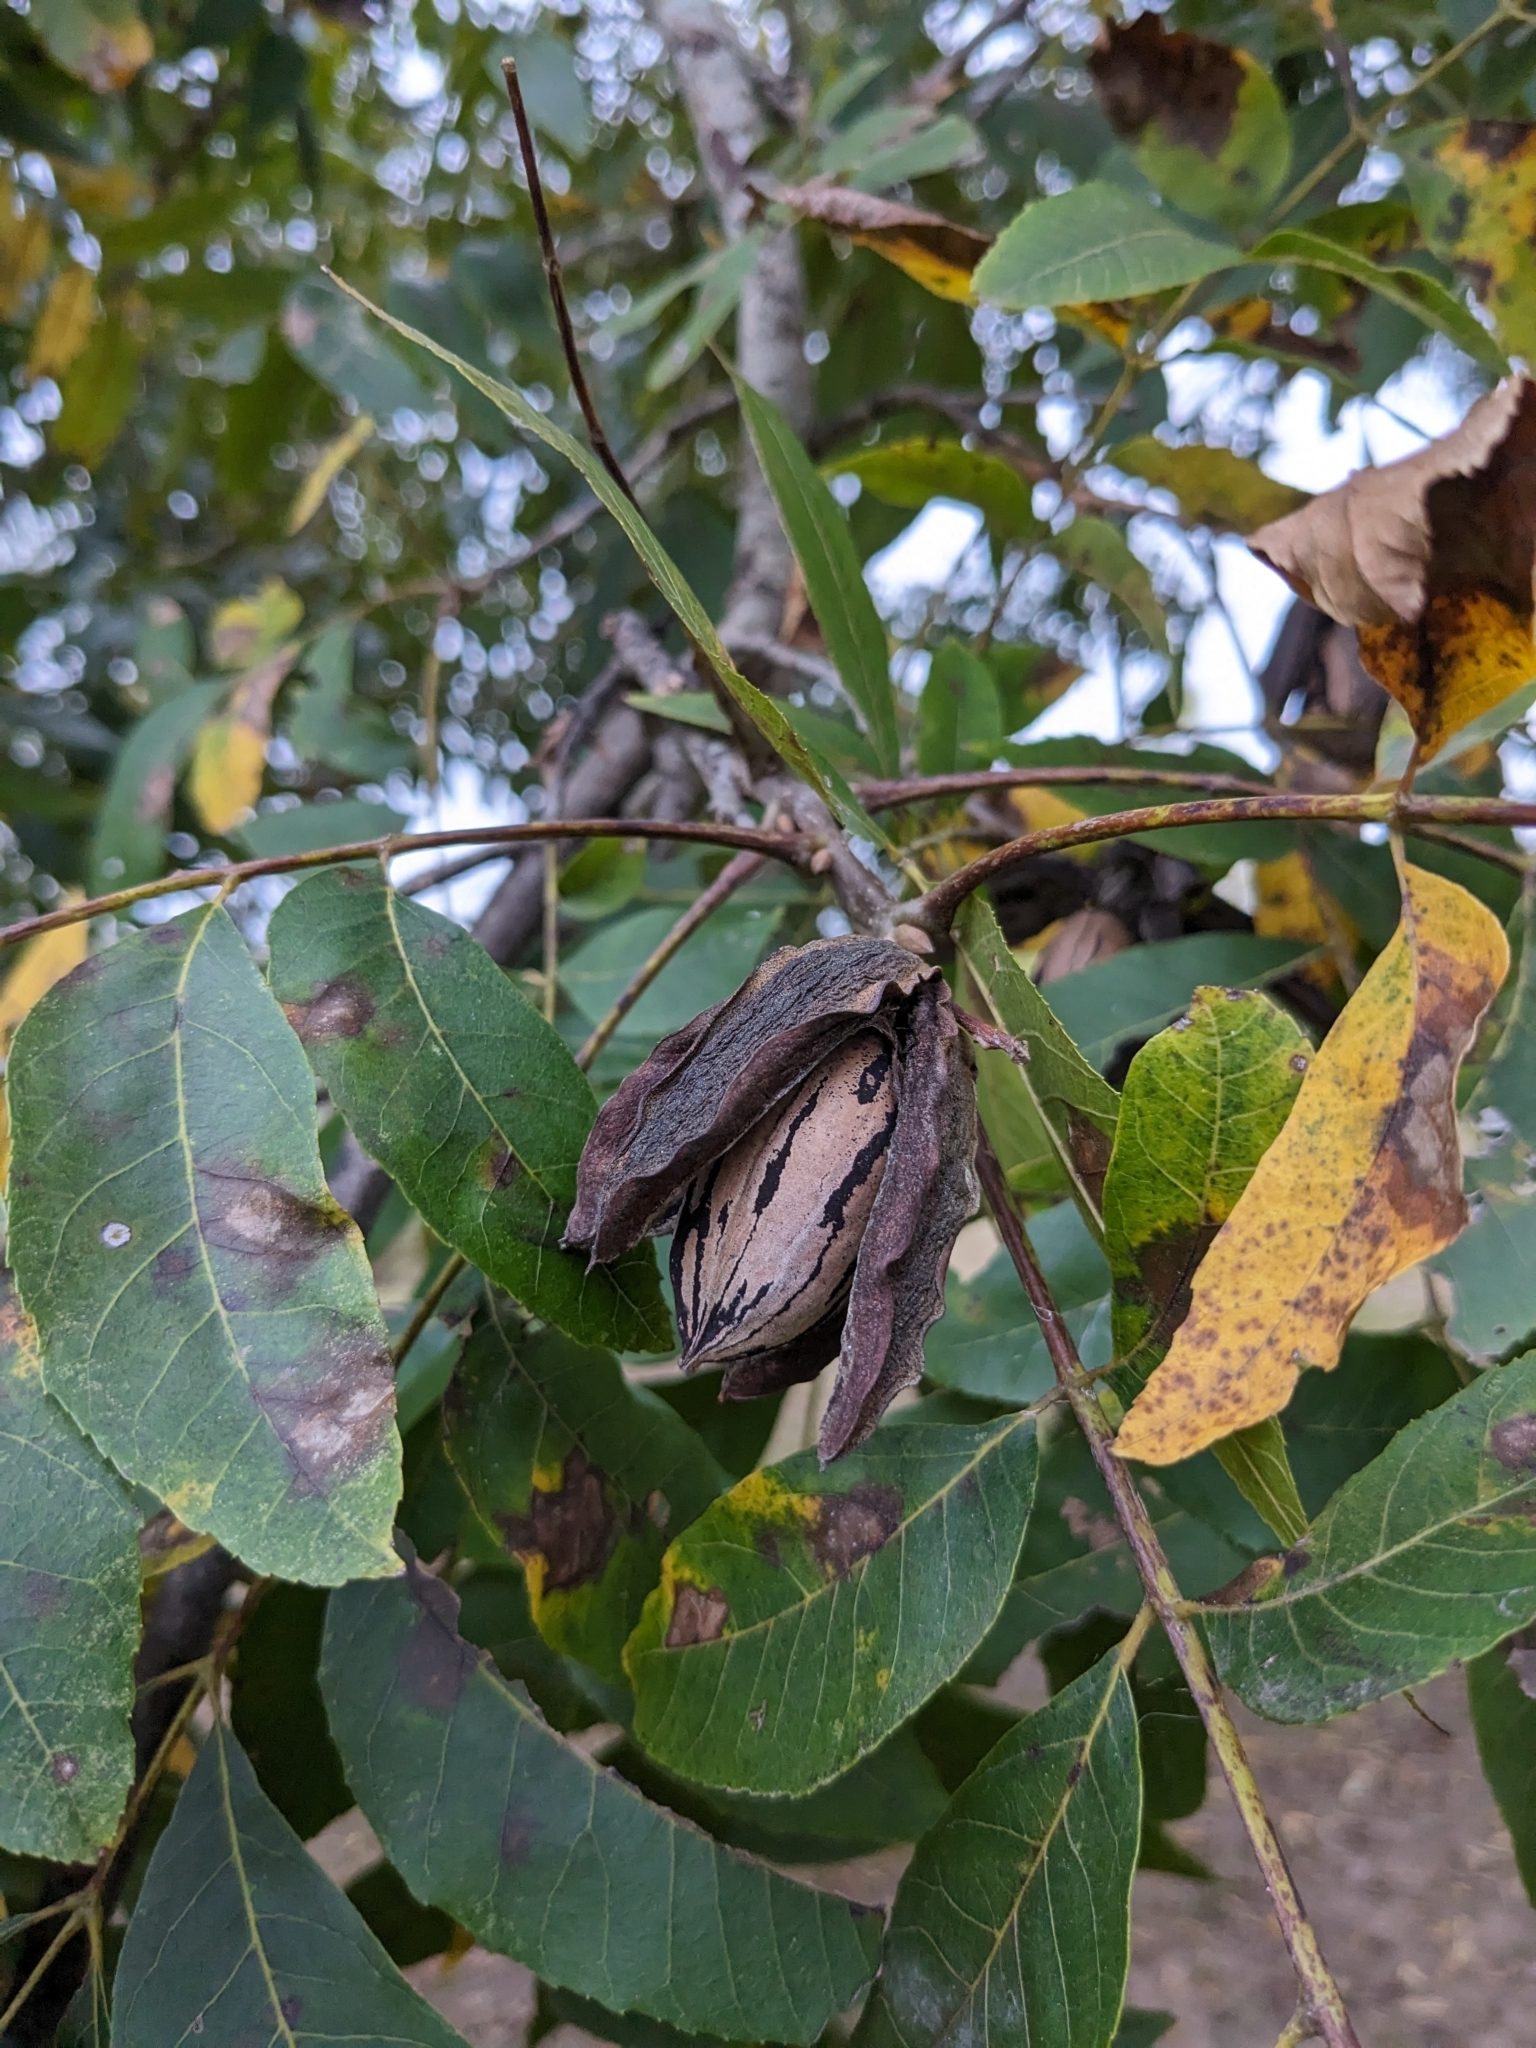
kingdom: Plantae
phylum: Tracheophyta
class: Magnoliopsida
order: Fagales
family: Juglandaceae
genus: Carya
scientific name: Carya illinoinensis
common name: Pecan
